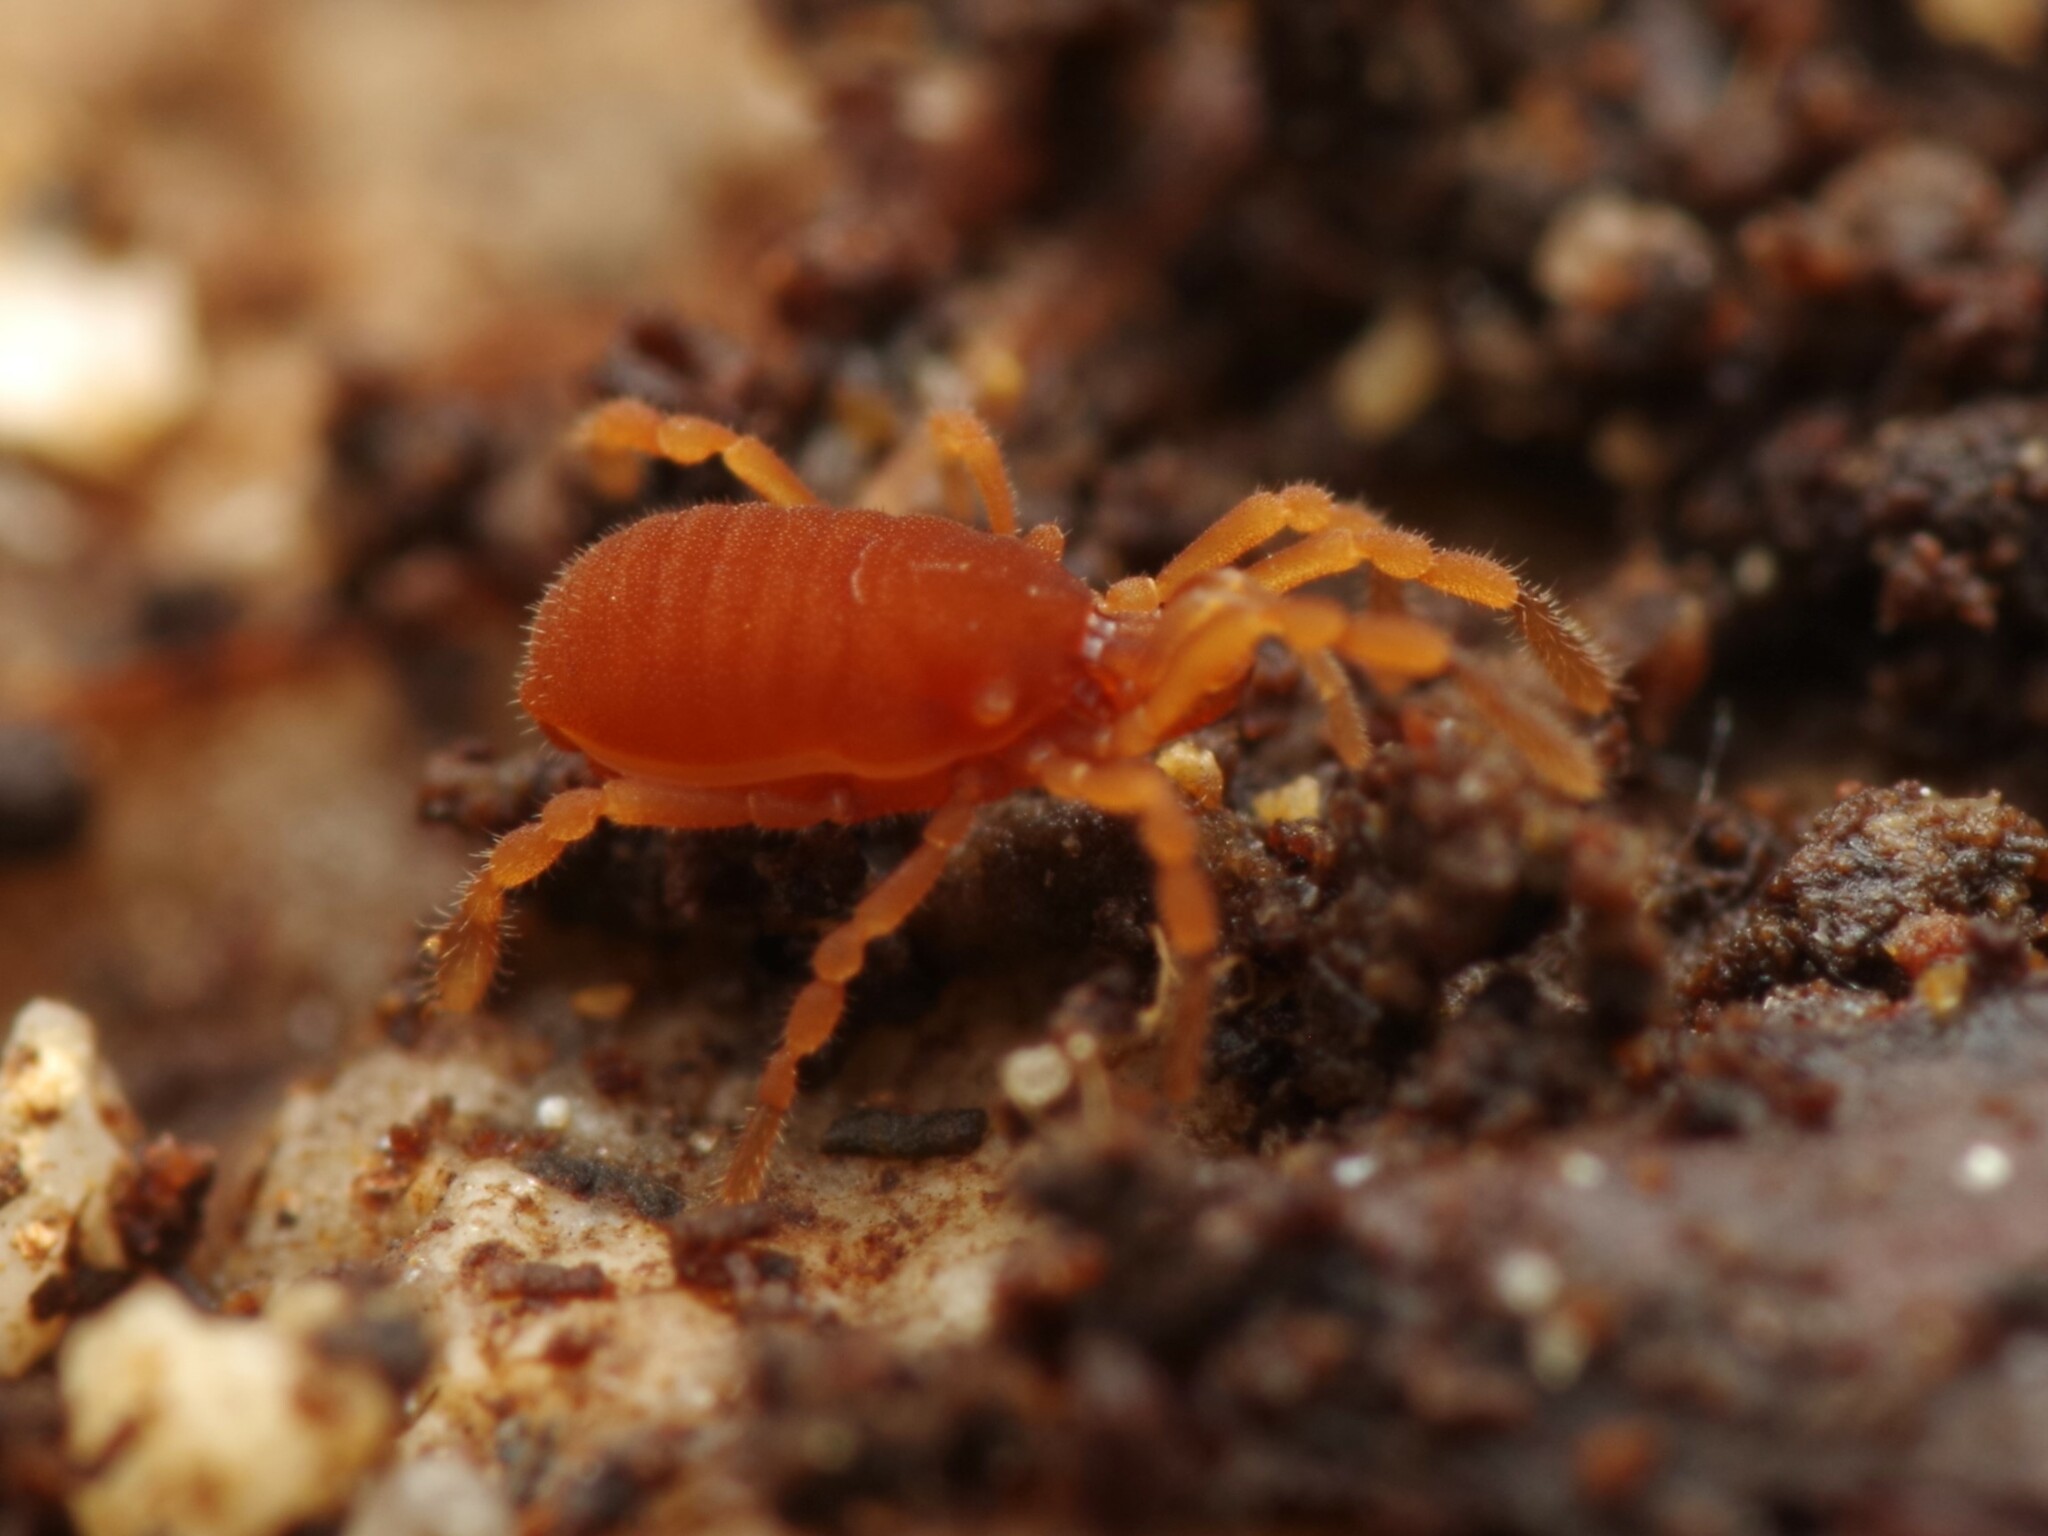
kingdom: Animalia
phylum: Arthropoda
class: Arachnida
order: Opiliones
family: Sironidae
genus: Siro
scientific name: Siro rubens
